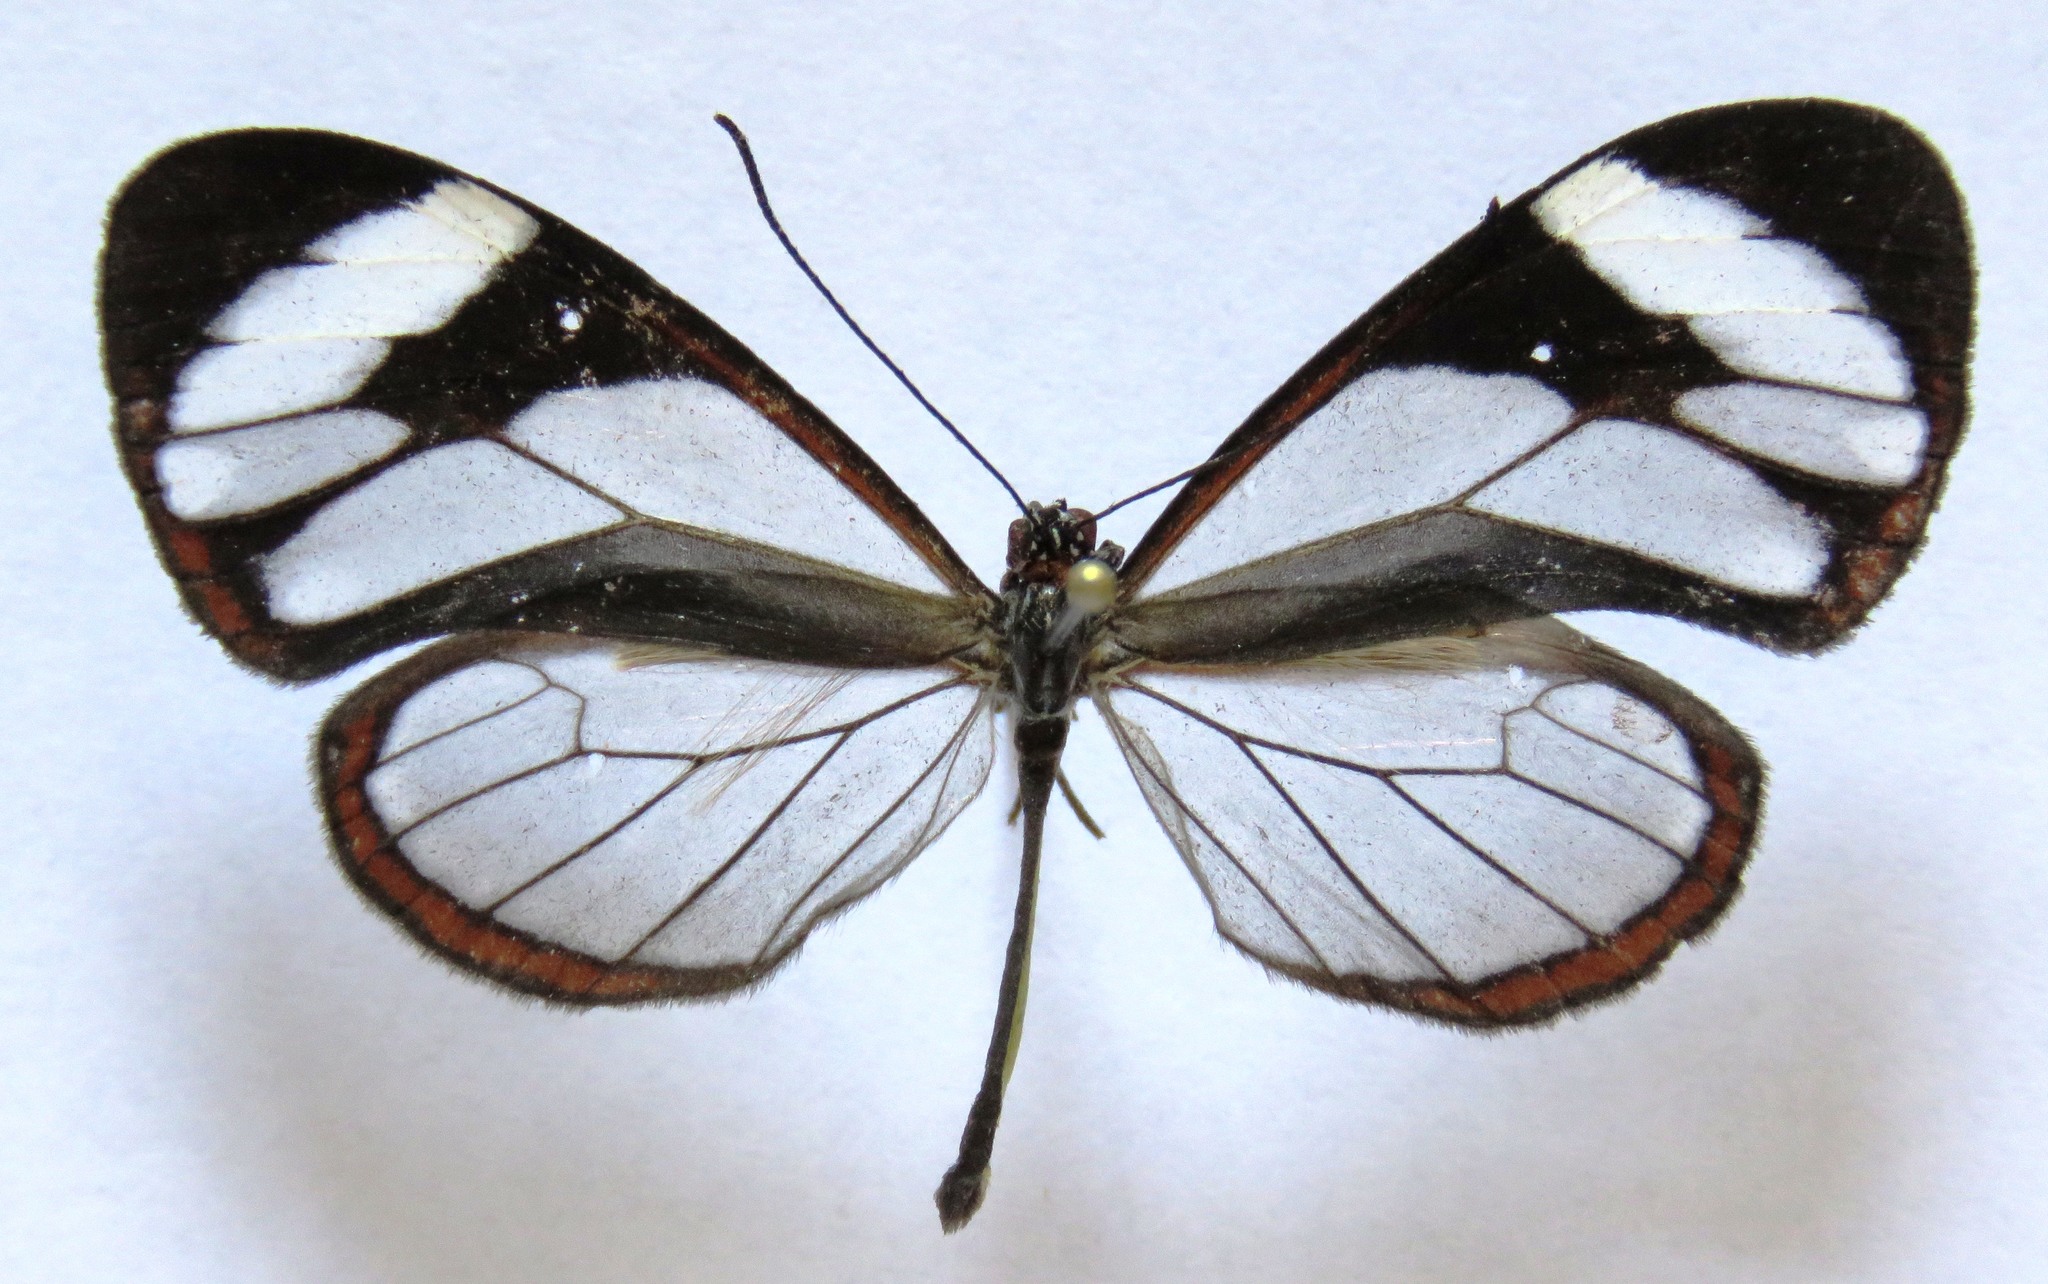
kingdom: Animalia
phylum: Arthropoda
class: Insecta
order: Lepidoptera
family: Nymphalidae
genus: Ithomia
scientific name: Ithomia patilla
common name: Patilla clearwing
